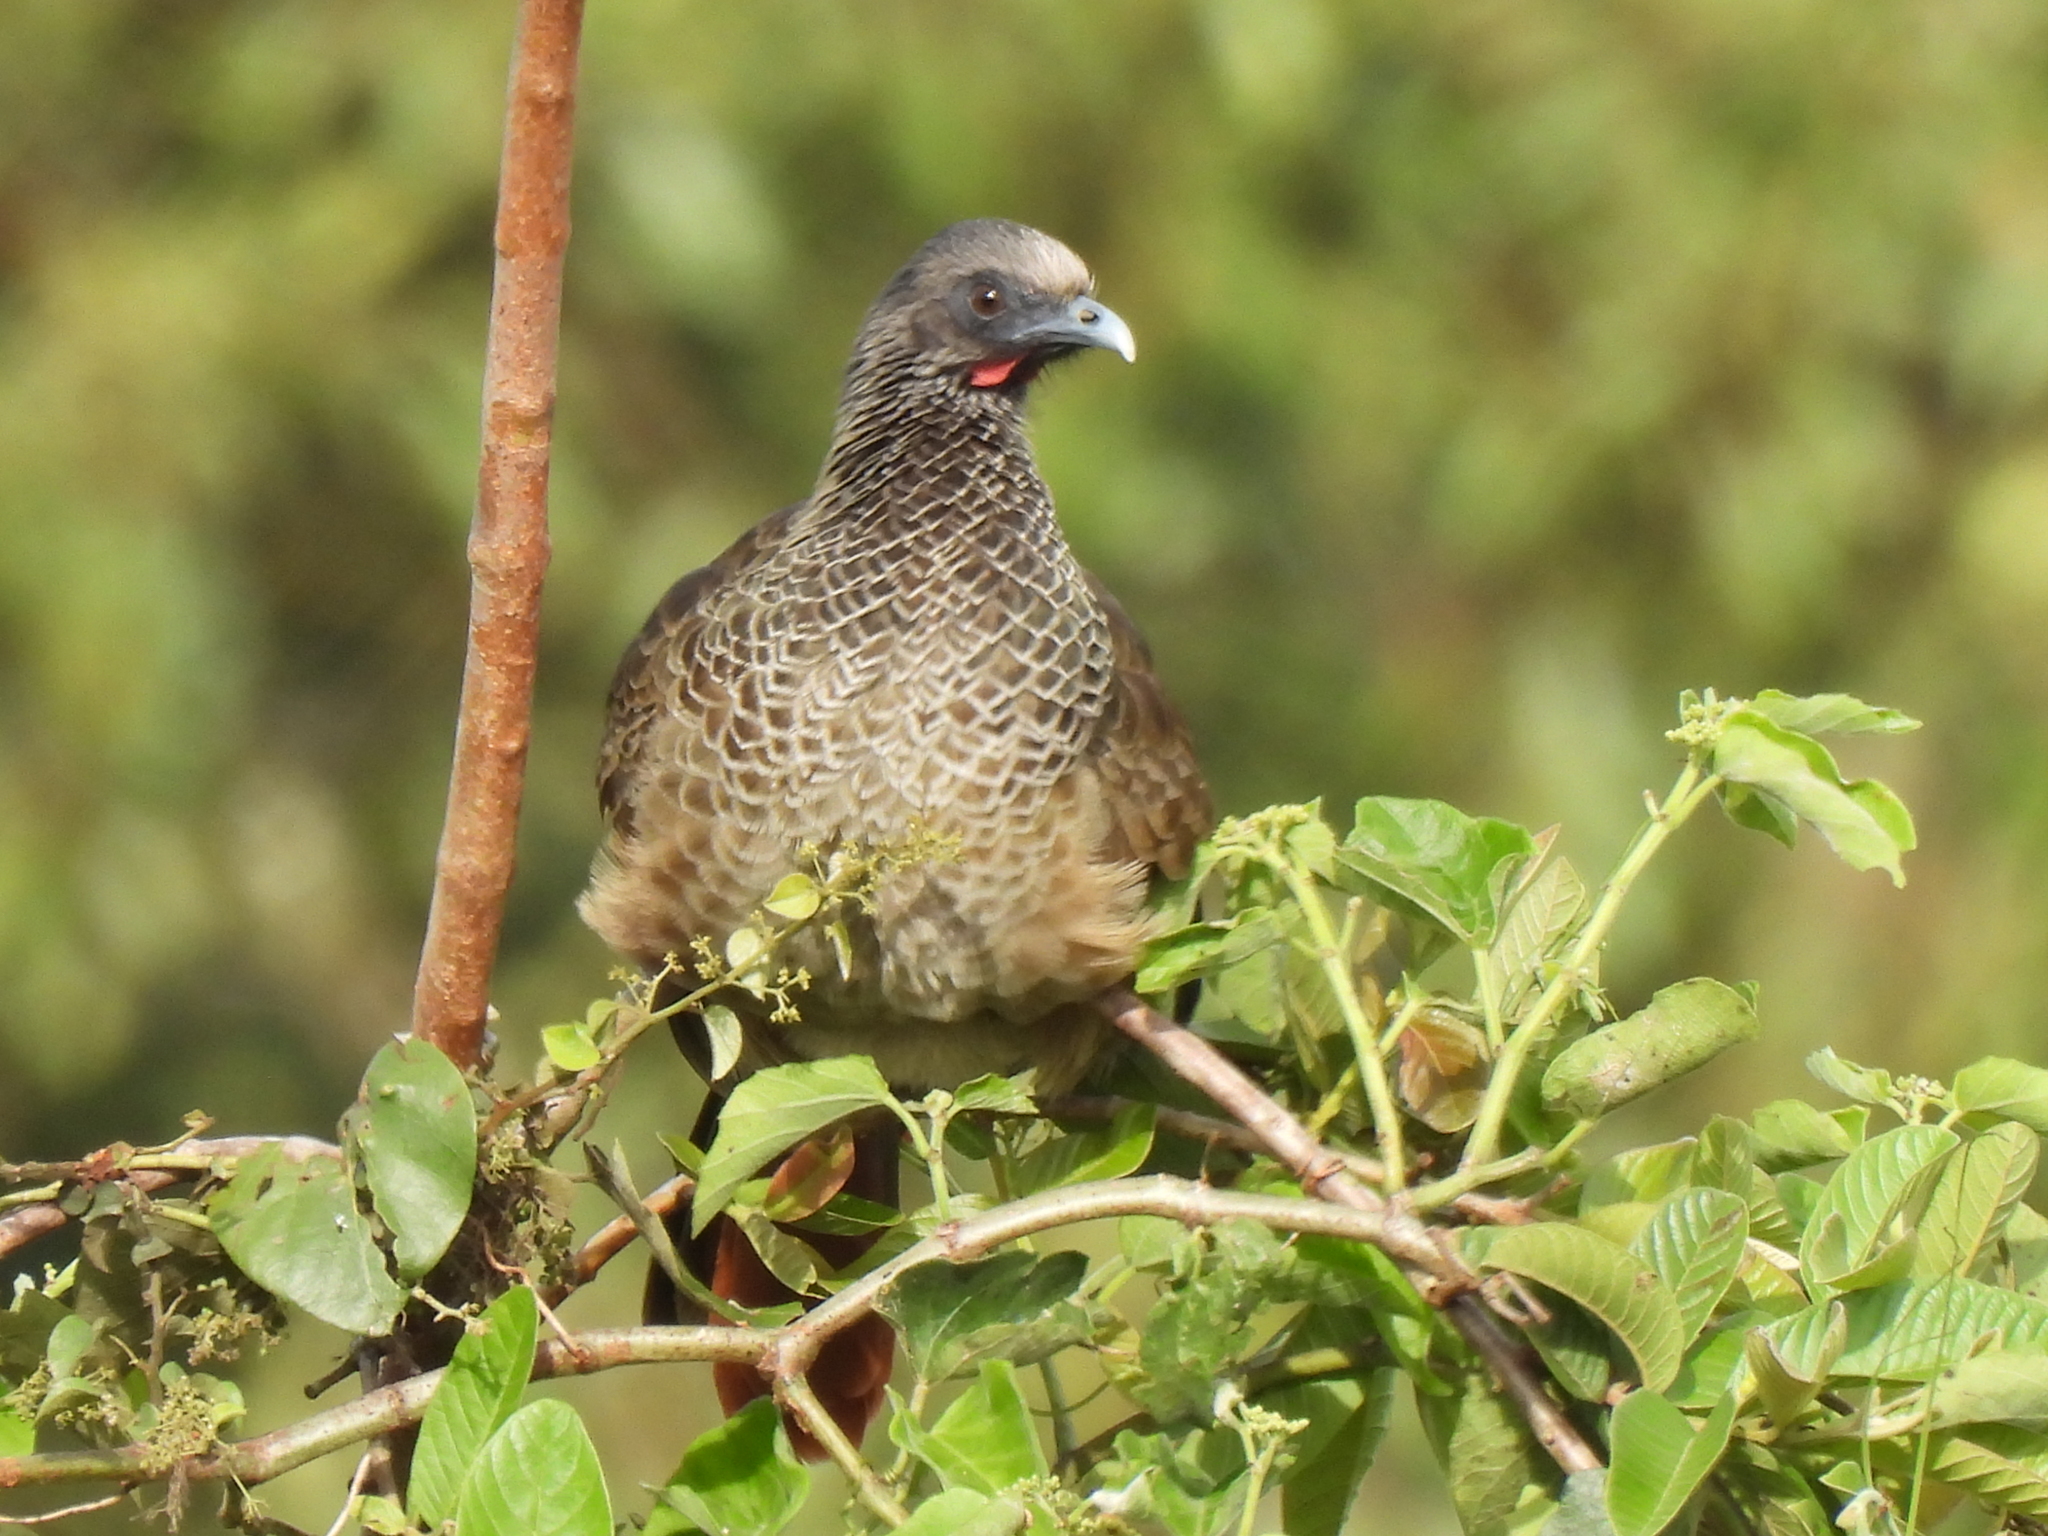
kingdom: Animalia
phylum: Chordata
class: Aves
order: Galliformes
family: Cracidae
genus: Ortalis
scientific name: Ortalis columbiana
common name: Colombian chachalaca
